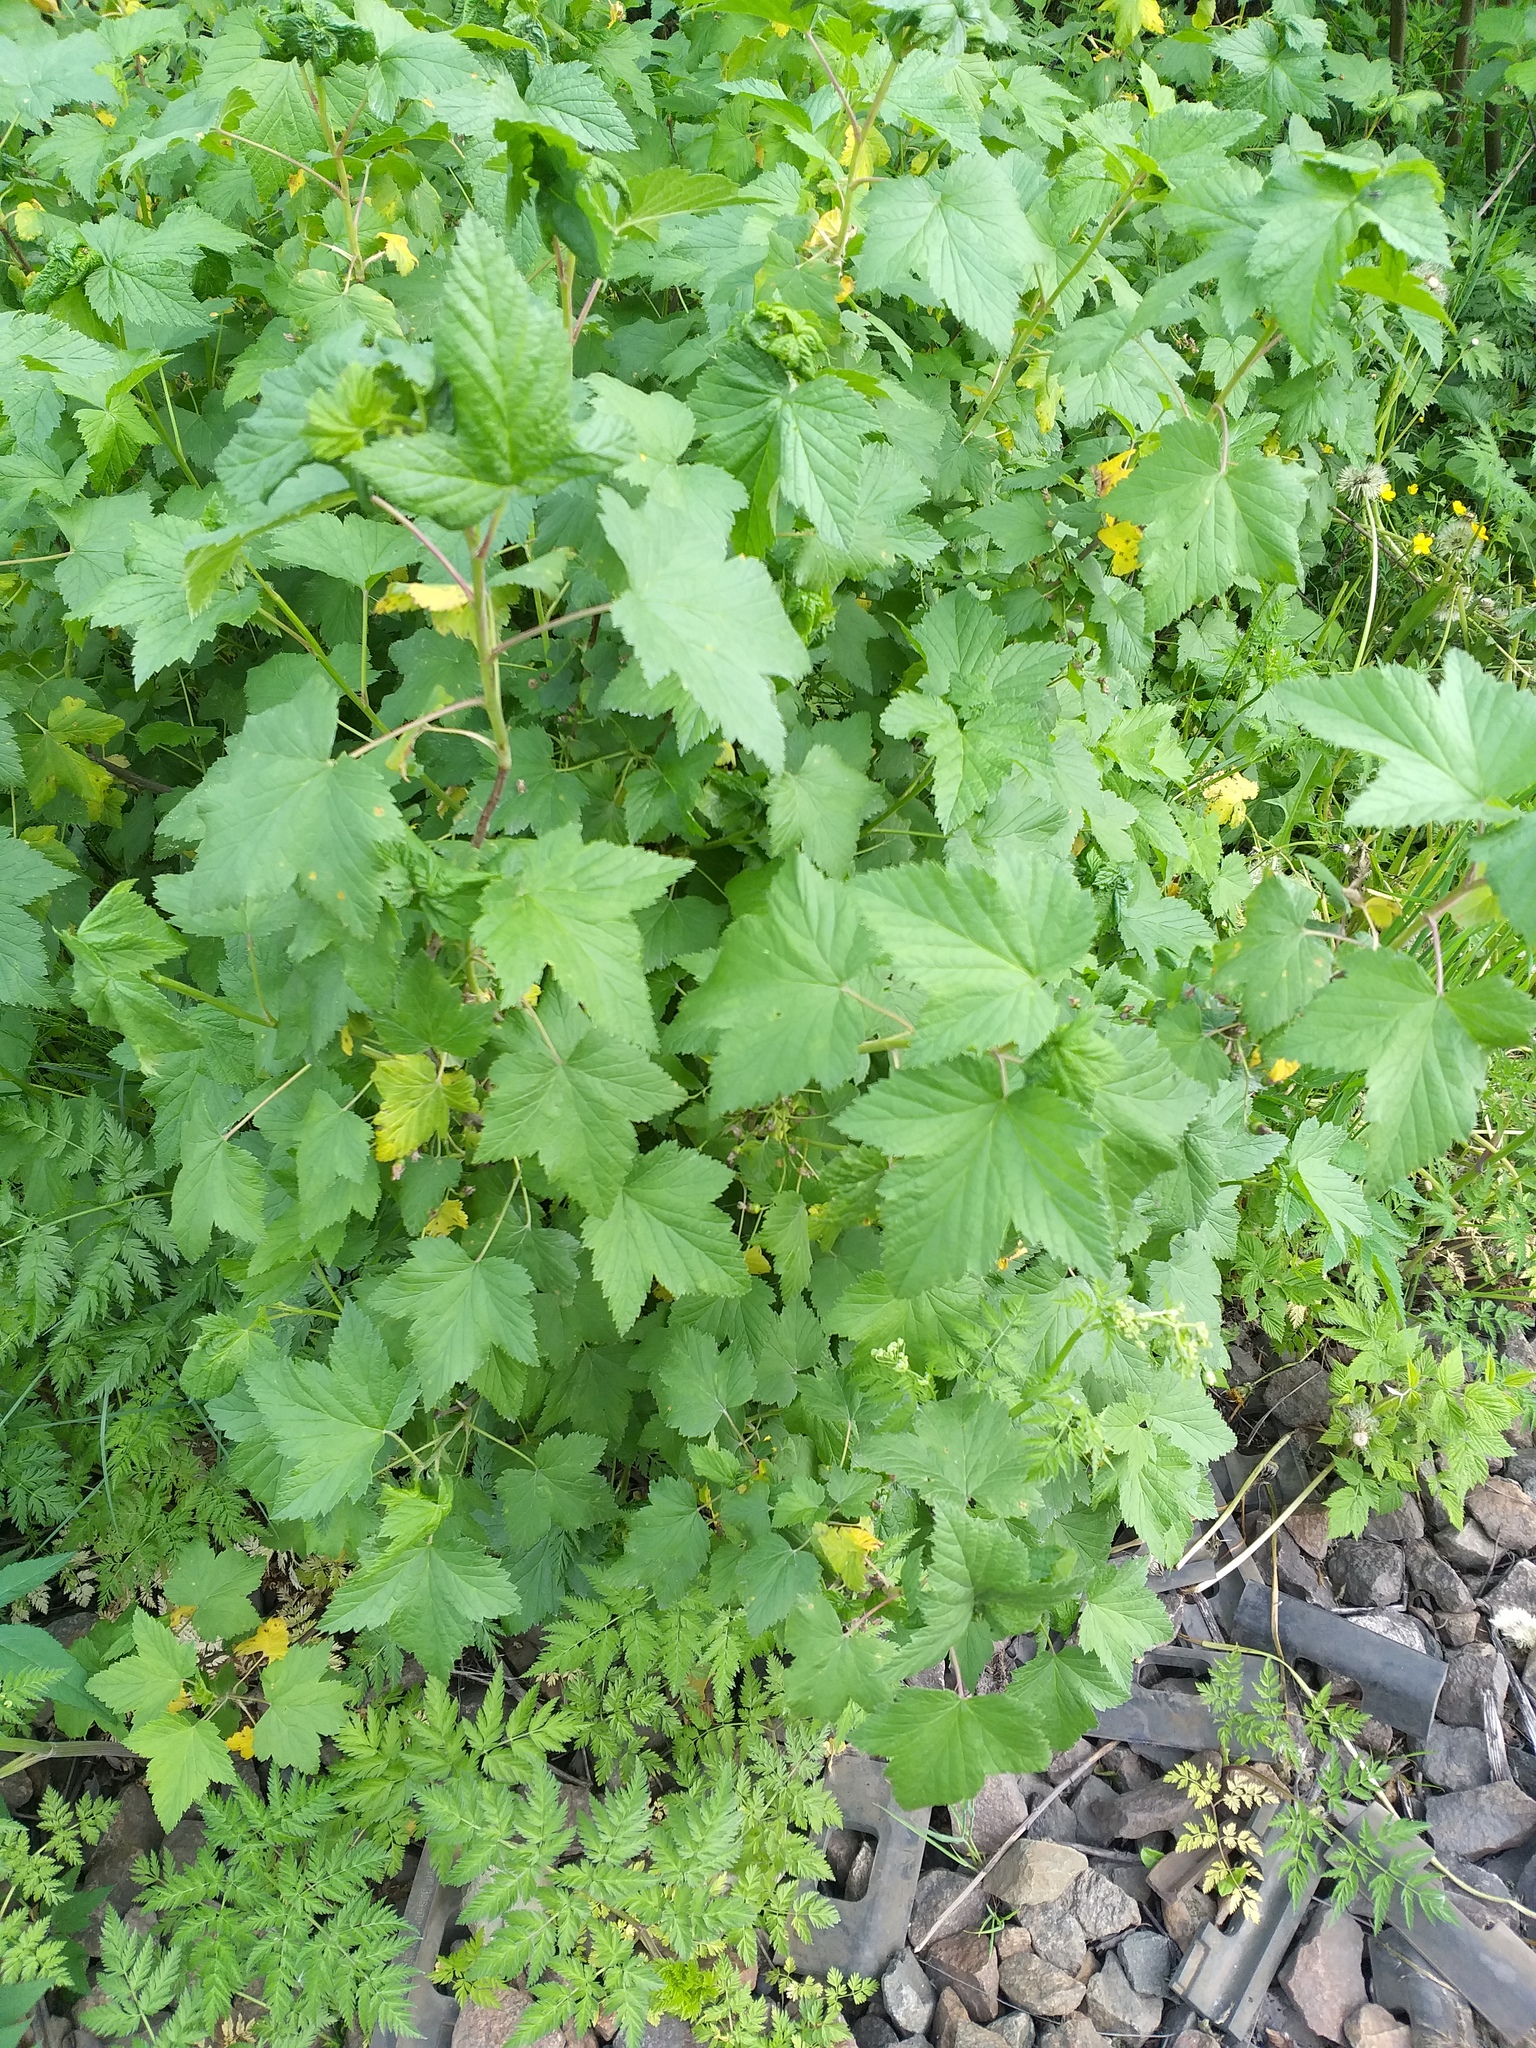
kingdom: Plantae
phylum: Tracheophyta
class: Magnoliopsida
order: Saxifragales
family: Grossulariaceae
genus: Ribes
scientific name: Ribes nigrum
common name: Black currant
